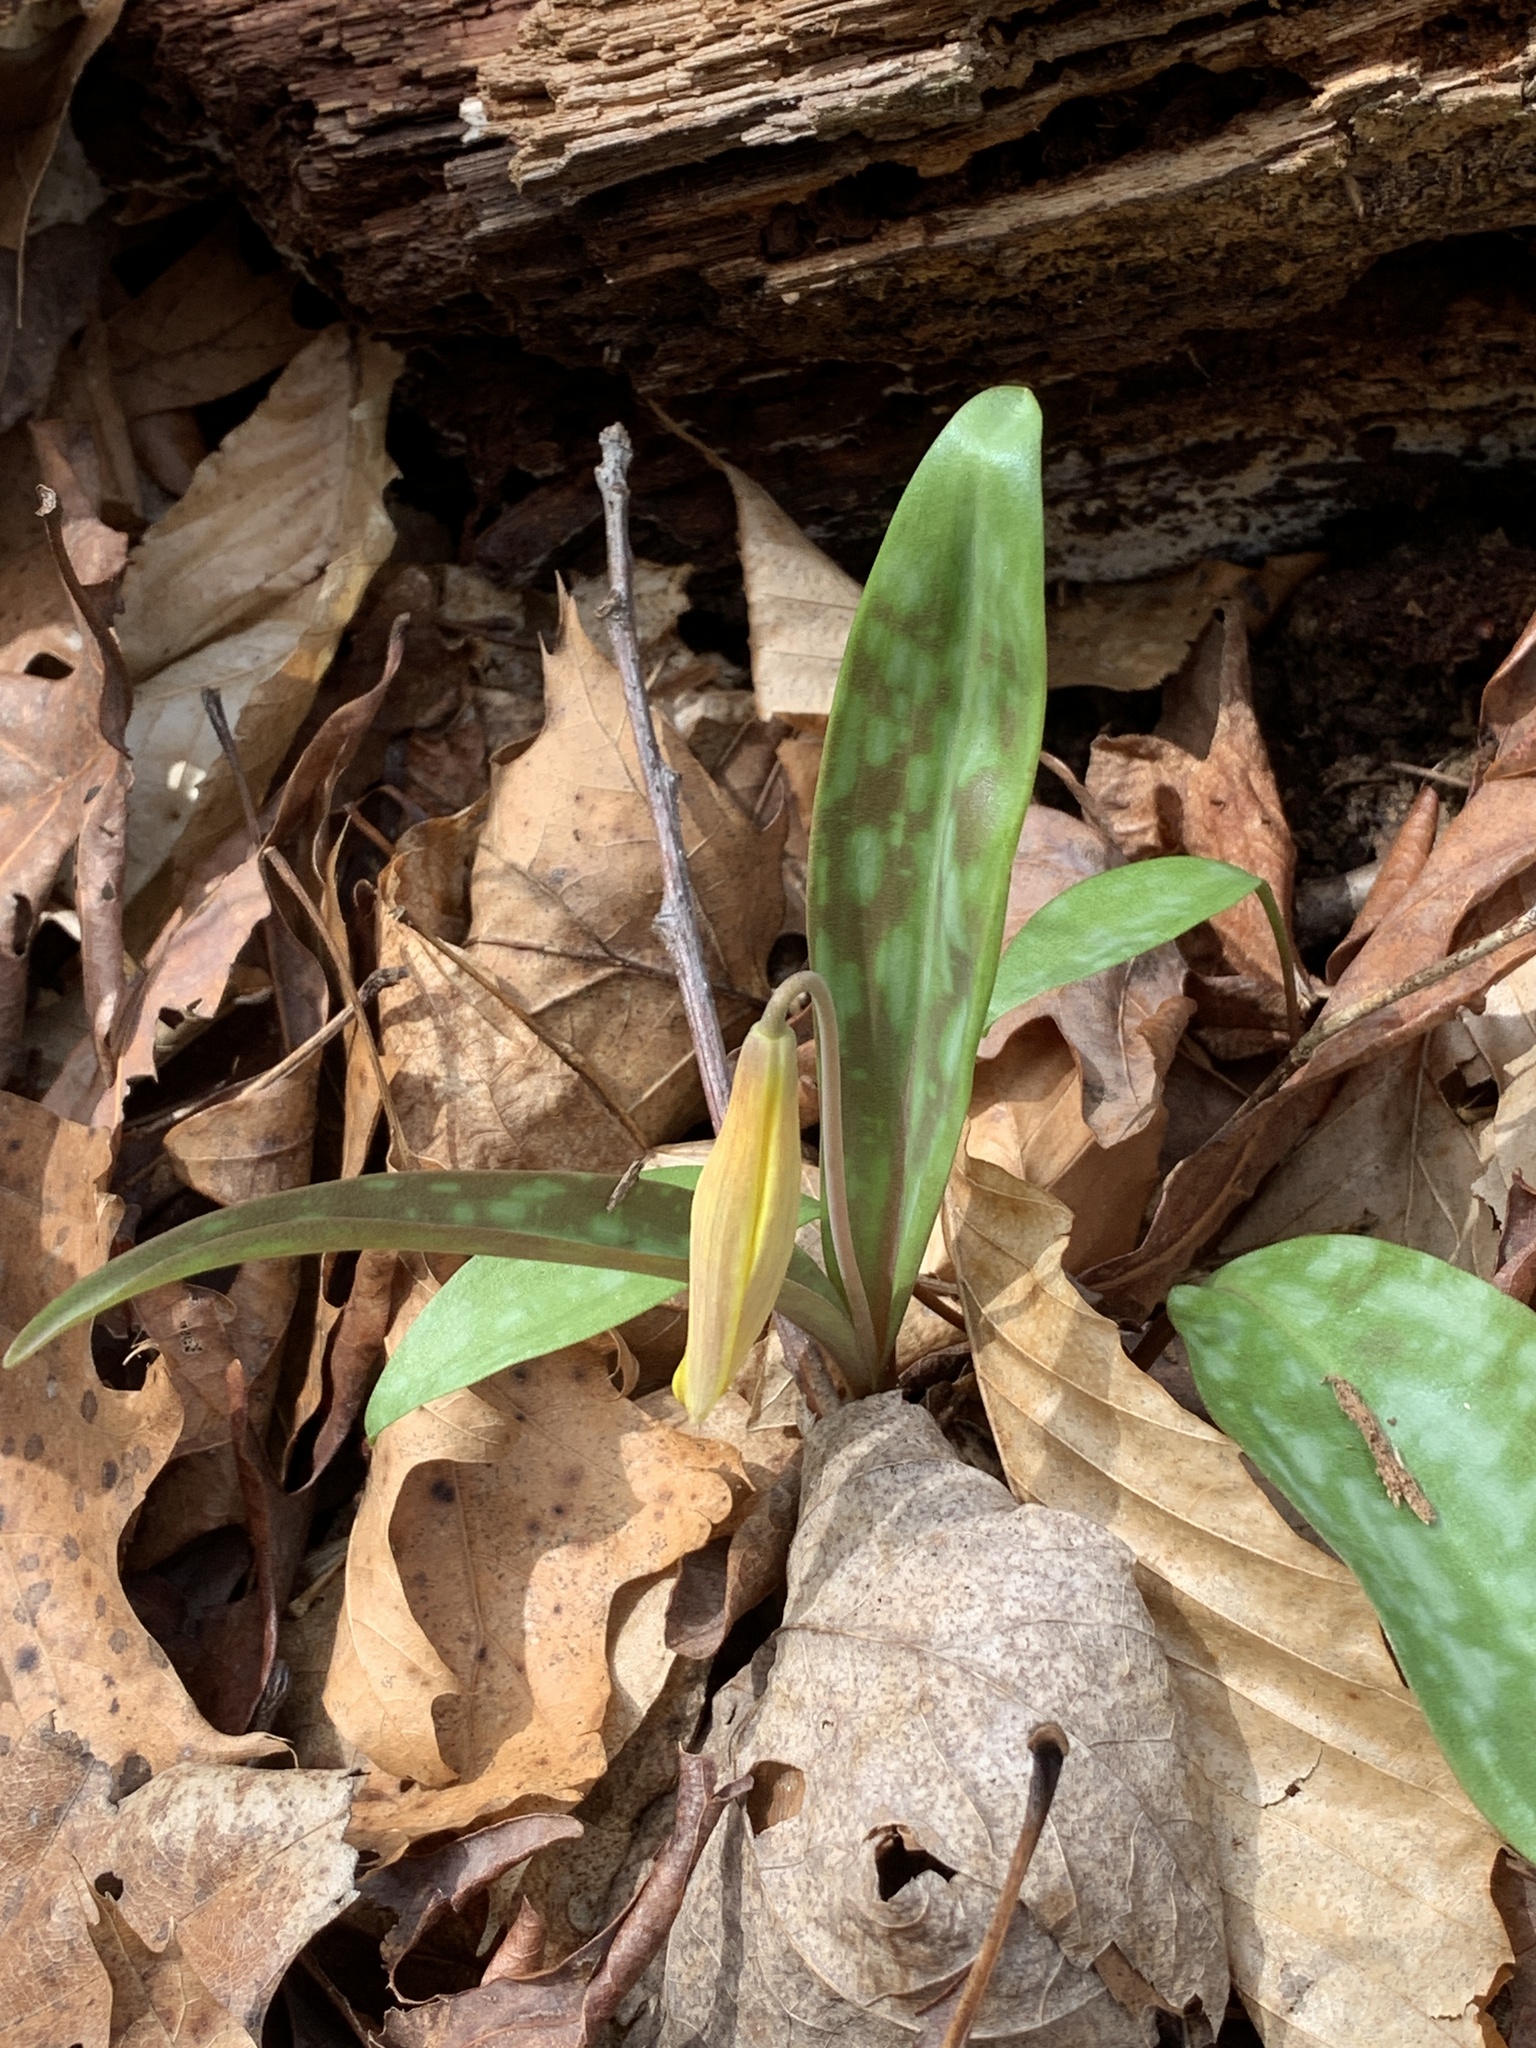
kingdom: Plantae
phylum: Tracheophyta
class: Liliopsida
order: Liliales
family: Liliaceae
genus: Erythronium
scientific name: Erythronium americanum
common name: Yellow adder's-tongue
